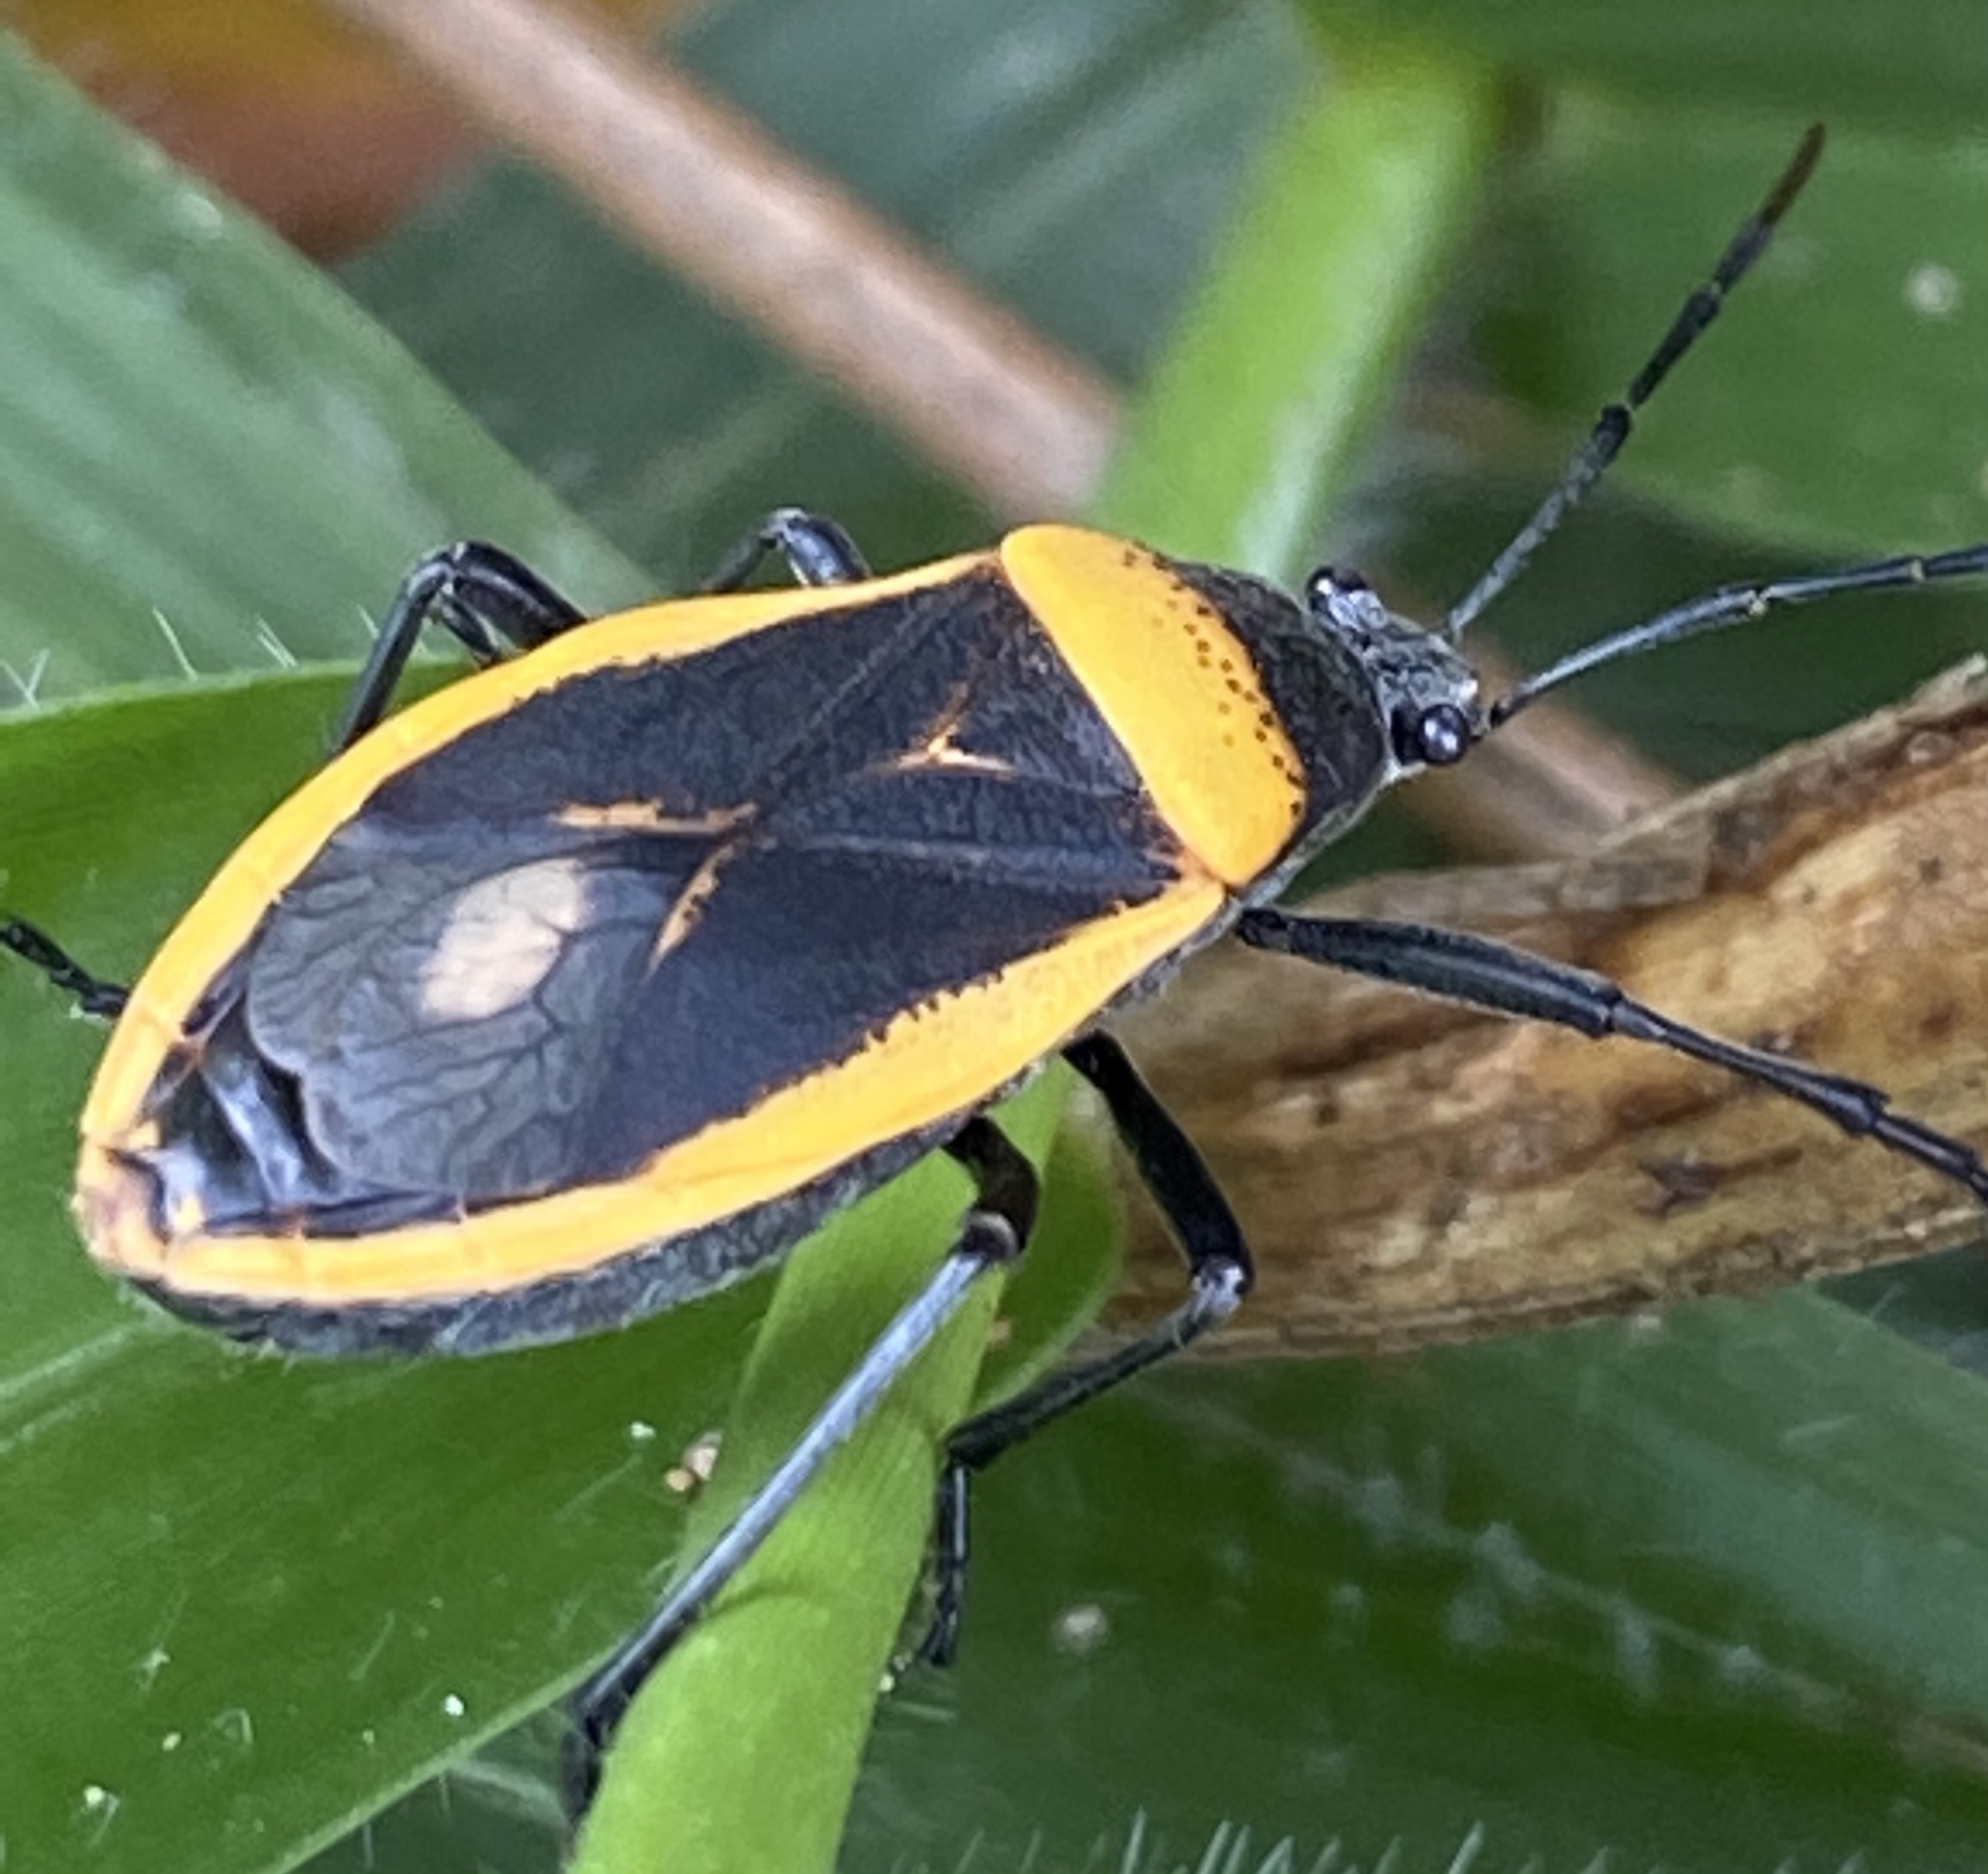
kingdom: Animalia
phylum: Arthropoda
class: Insecta
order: Hemiptera
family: Largidae
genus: Largus
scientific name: Largus cinctiventris
